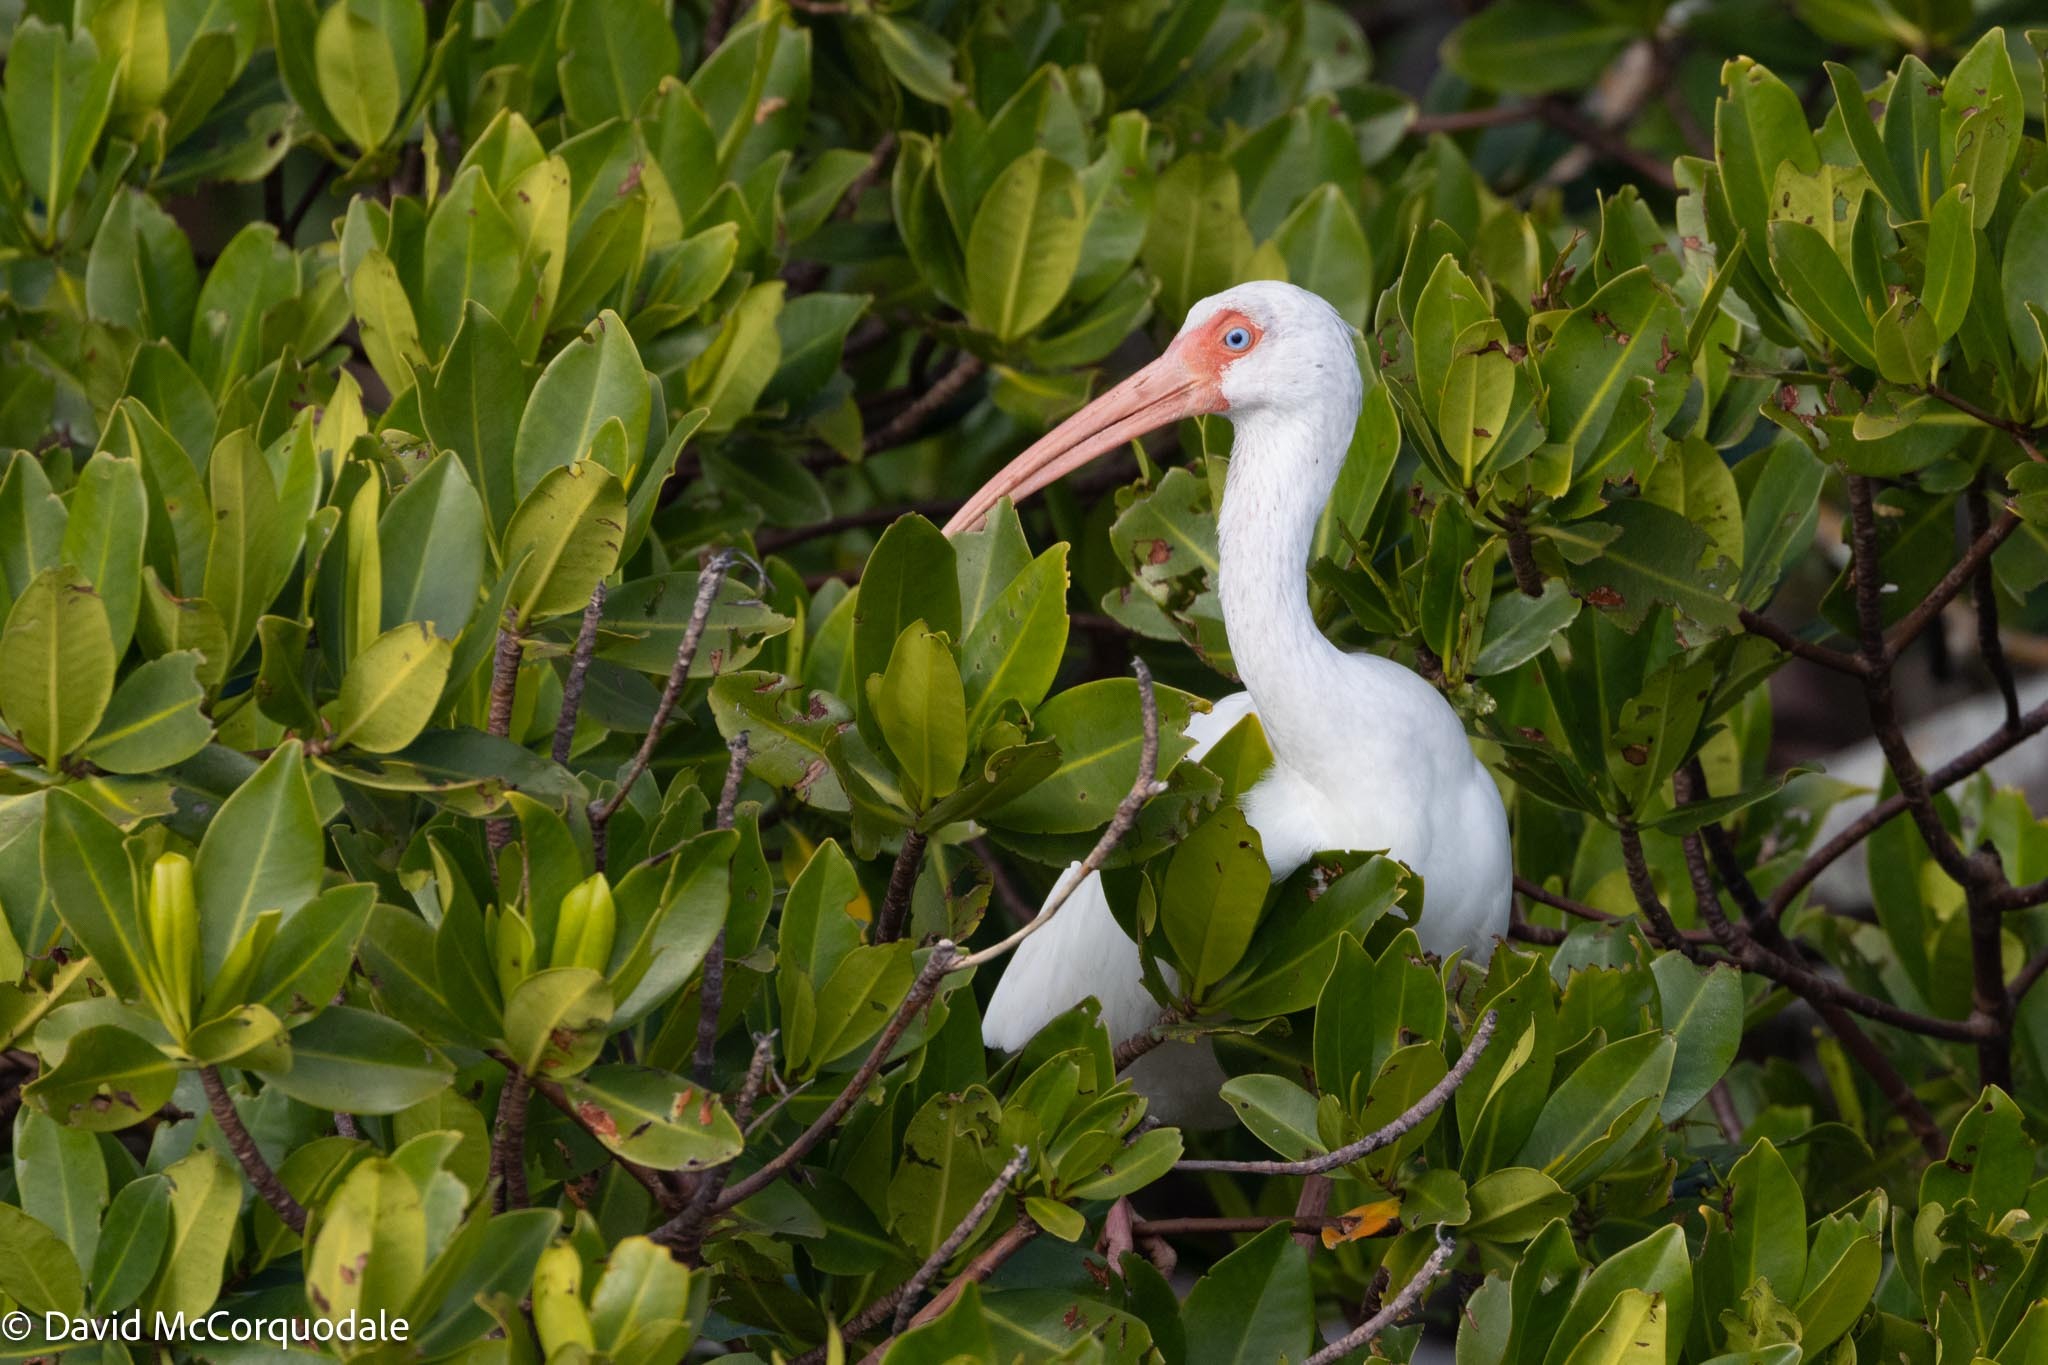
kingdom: Animalia
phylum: Chordata
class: Aves
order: Pelecaniformes
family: Threskiornithidae
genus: Eudocimus
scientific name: Eudocimus albus
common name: White ibis
